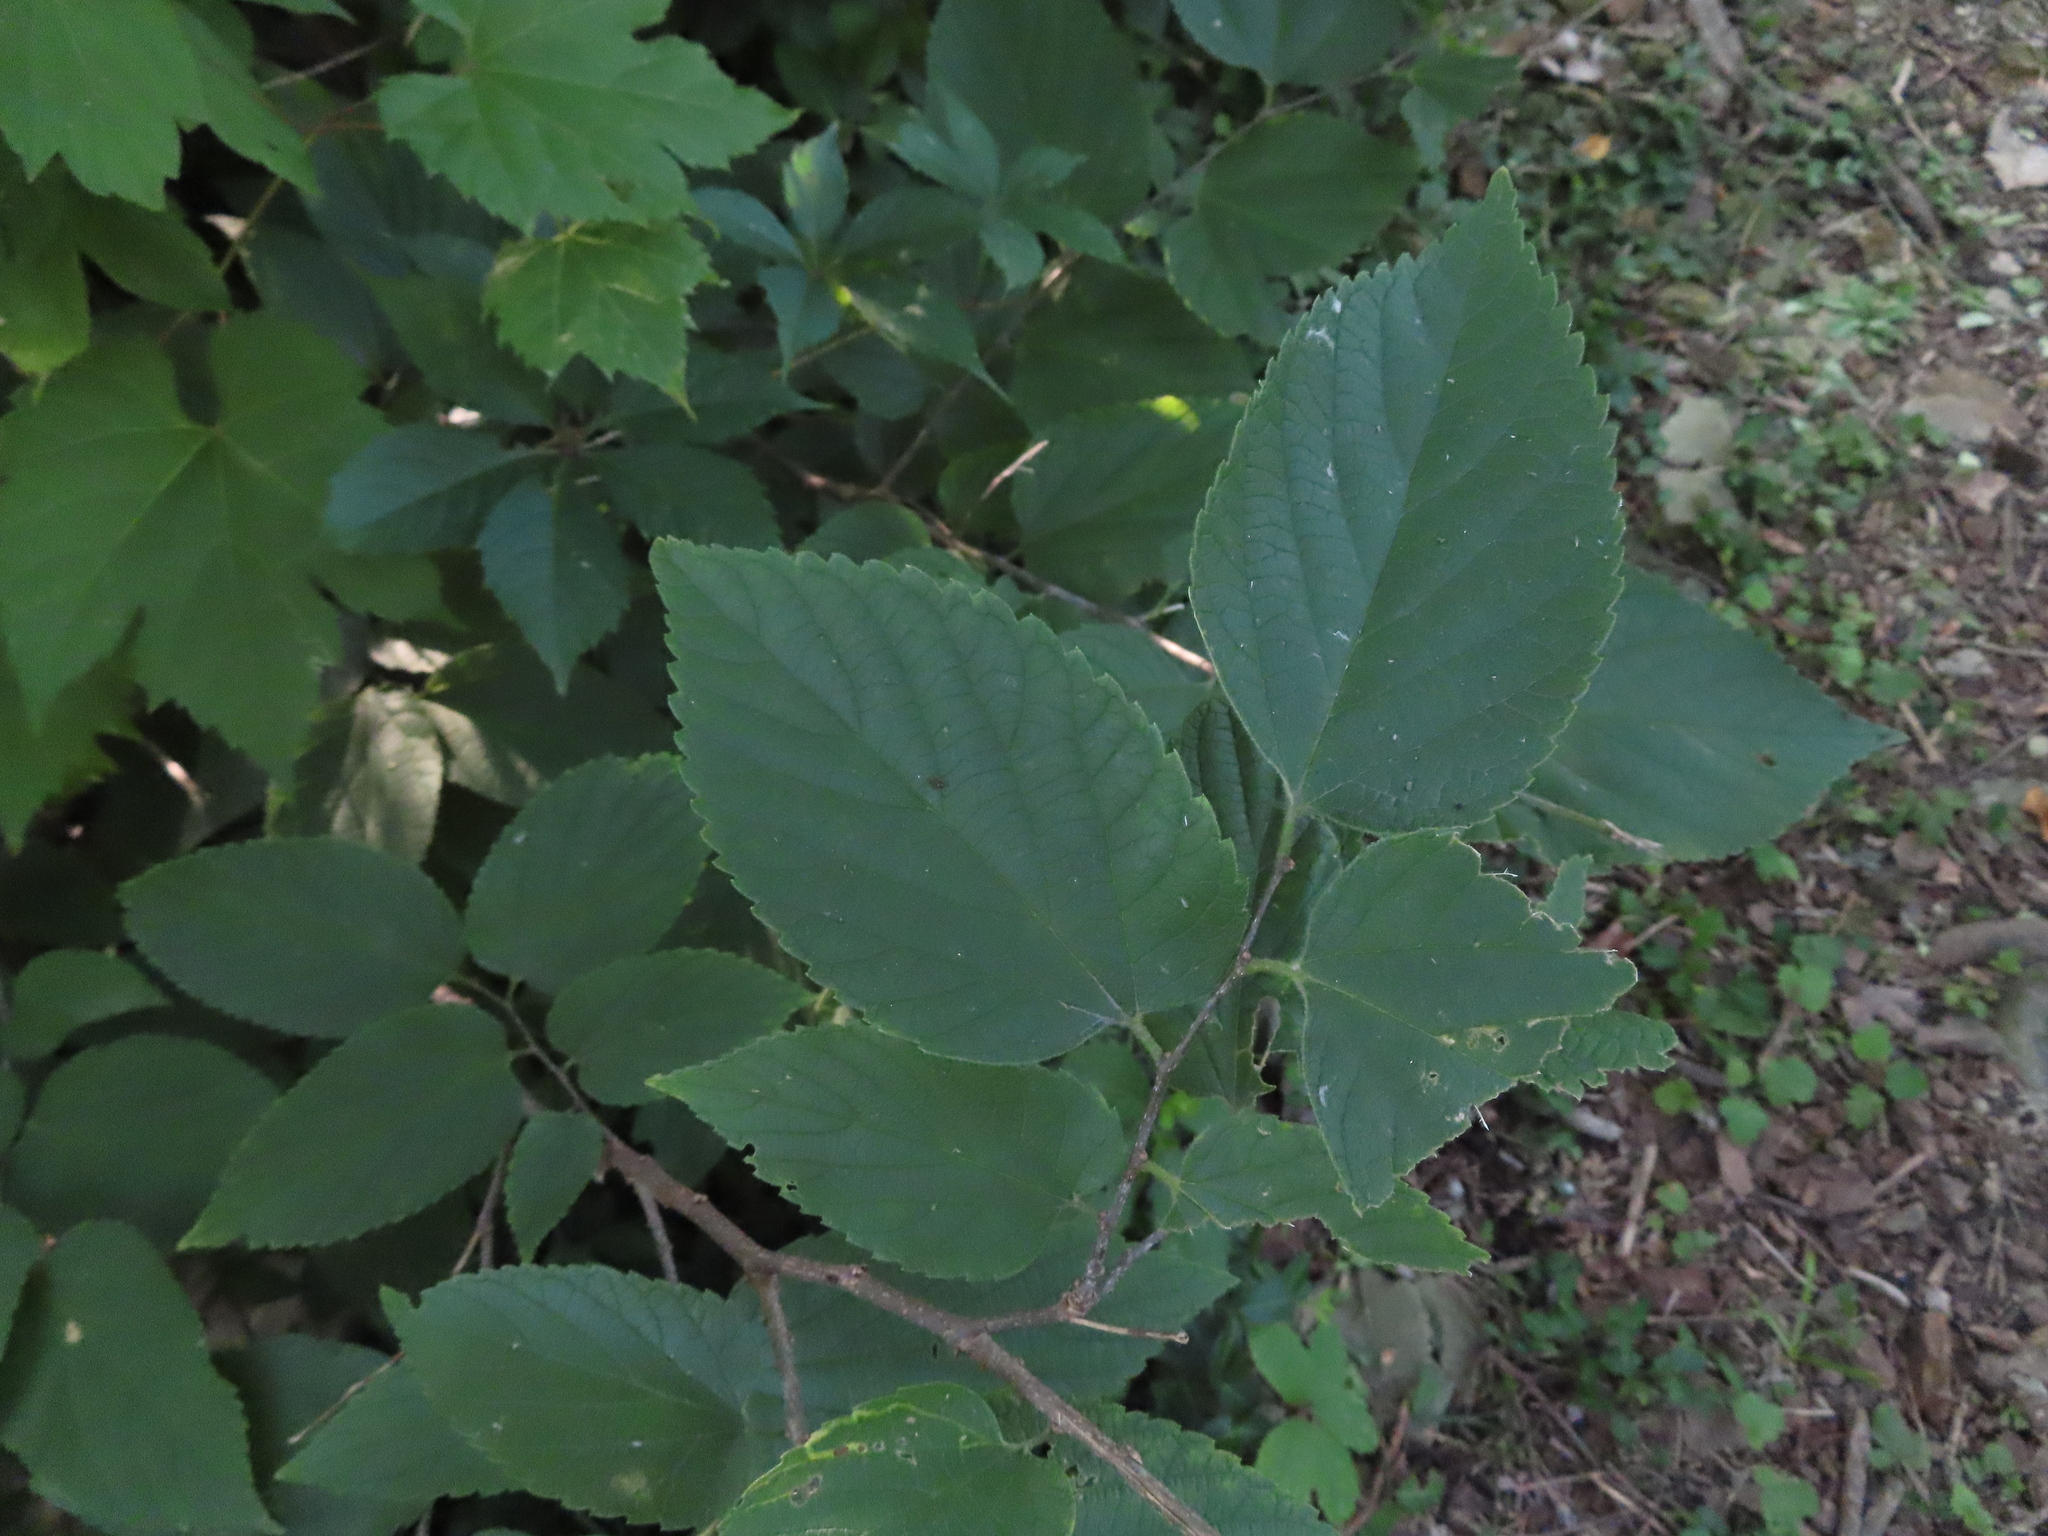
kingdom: Plantae
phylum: Tracheophyta
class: Magnoliopsida
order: Rosales
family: Cannabaceae
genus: Celtis
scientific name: Celtis occidentalis
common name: Common hackberry
